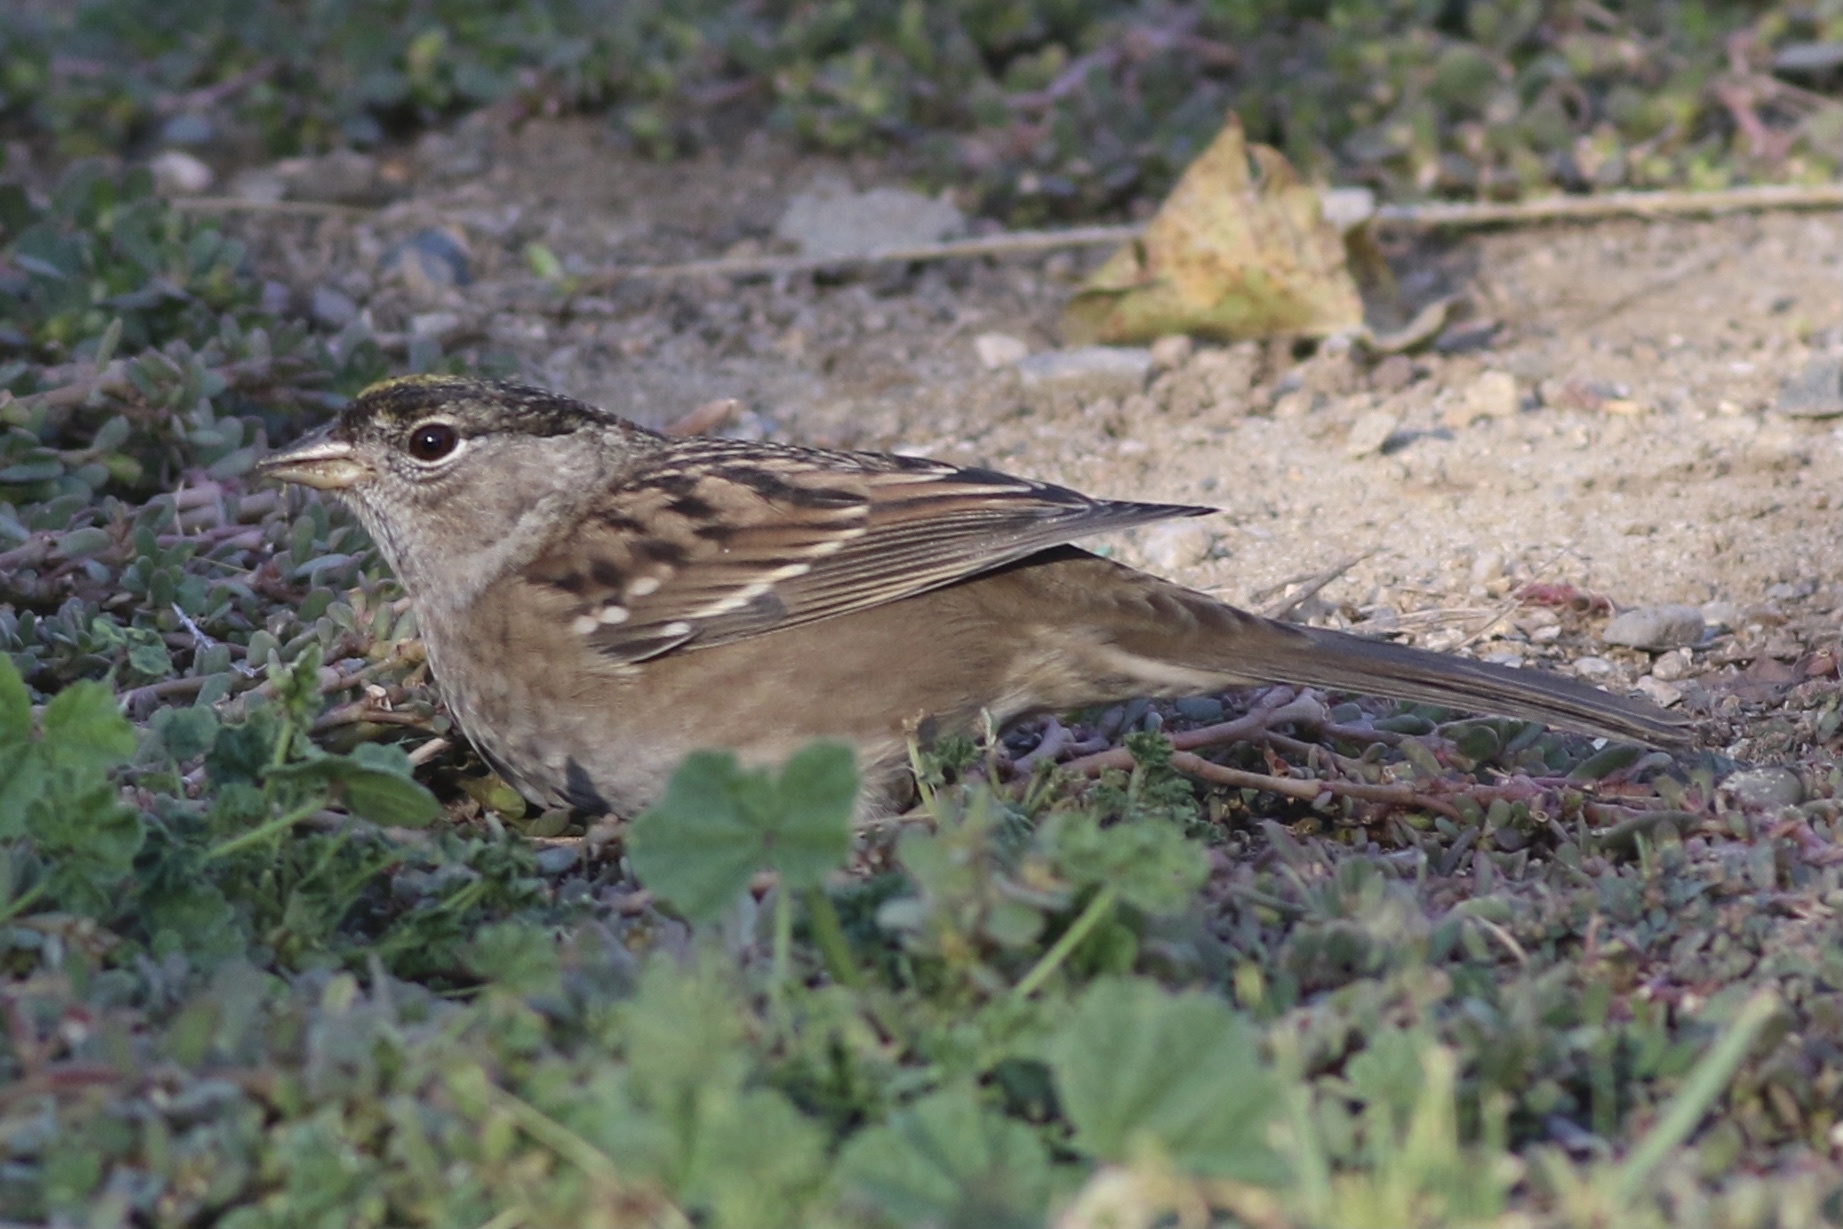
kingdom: Animalia
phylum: Chordata
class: Aves
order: Passeriformes
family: Passerellidae
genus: Zonotrichia
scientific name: Zonotrichia atricapilla
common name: Golden-crowned sparrow
